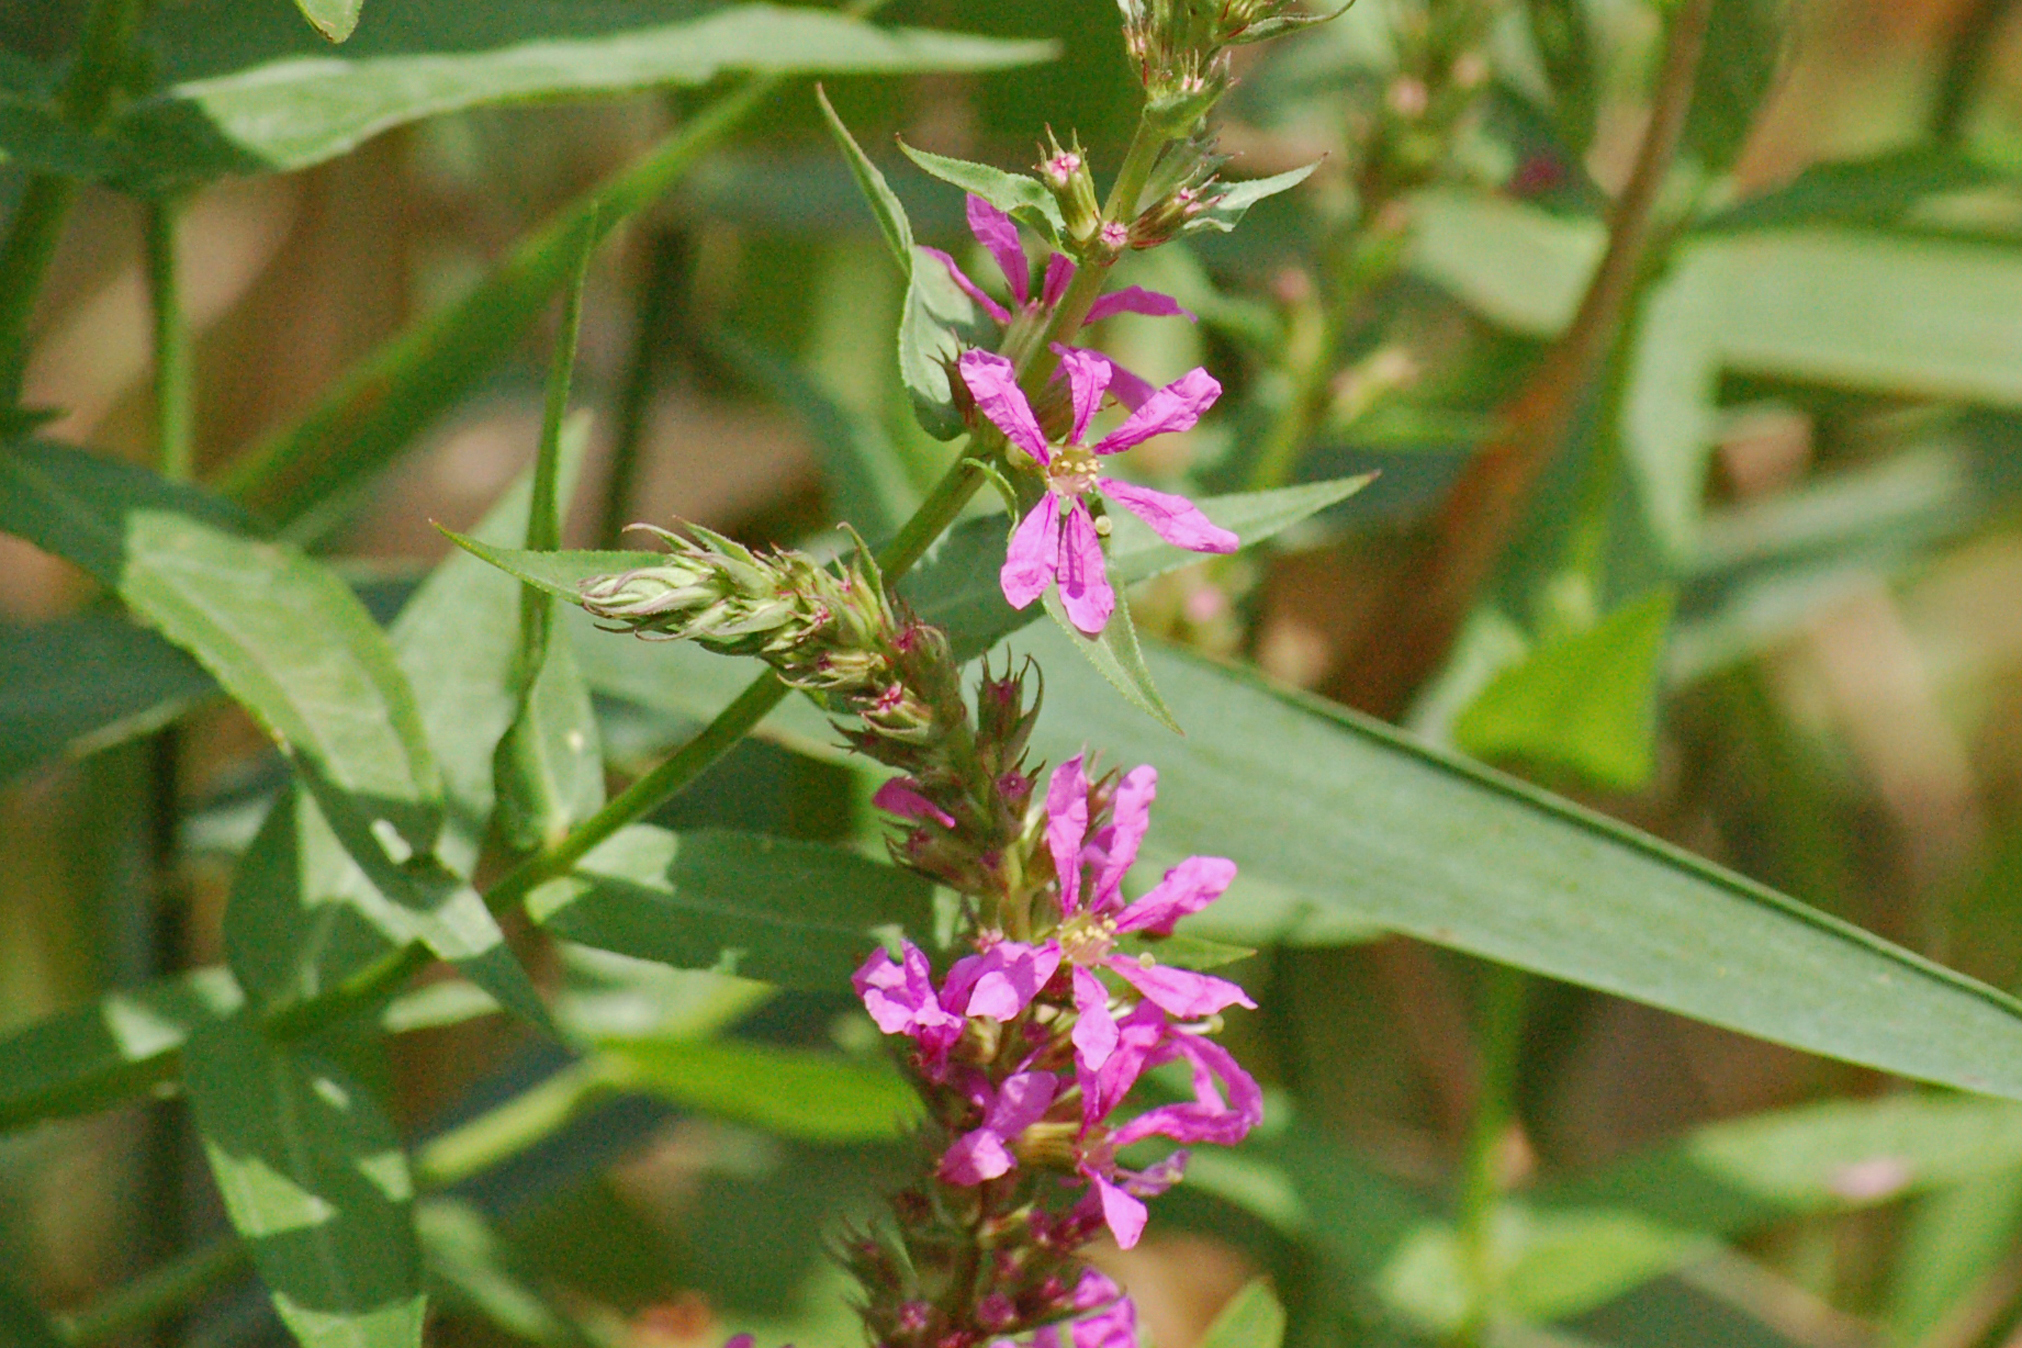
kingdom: Plantae
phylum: Tracheophyta
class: Magnoliopsida
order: Myrtales
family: Lythraceae
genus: Lythrum
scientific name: Lythrum salicaria
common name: Purple loosestrife
